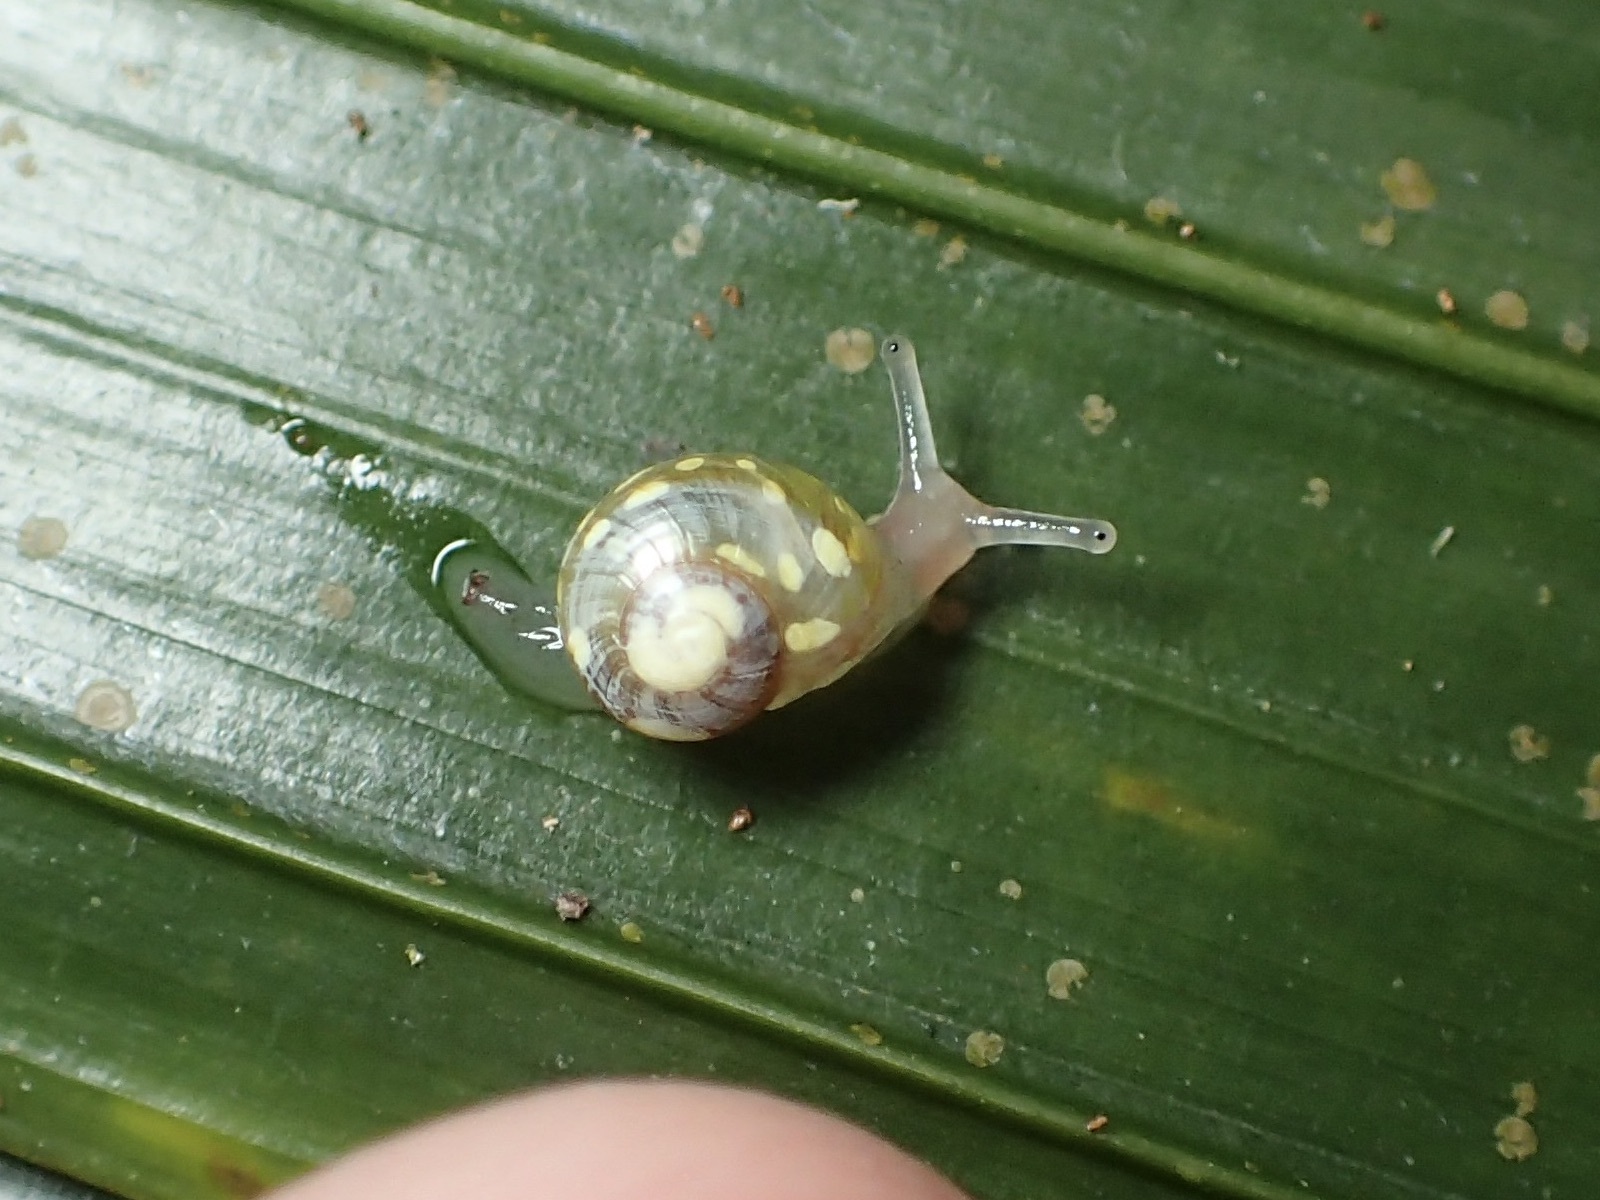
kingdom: Animalia
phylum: Mollusca
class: Gastropoda
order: Stylommatophora
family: Helicarionidae
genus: Dendrolamellaria
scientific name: Dendrolamellaria mathewsi
